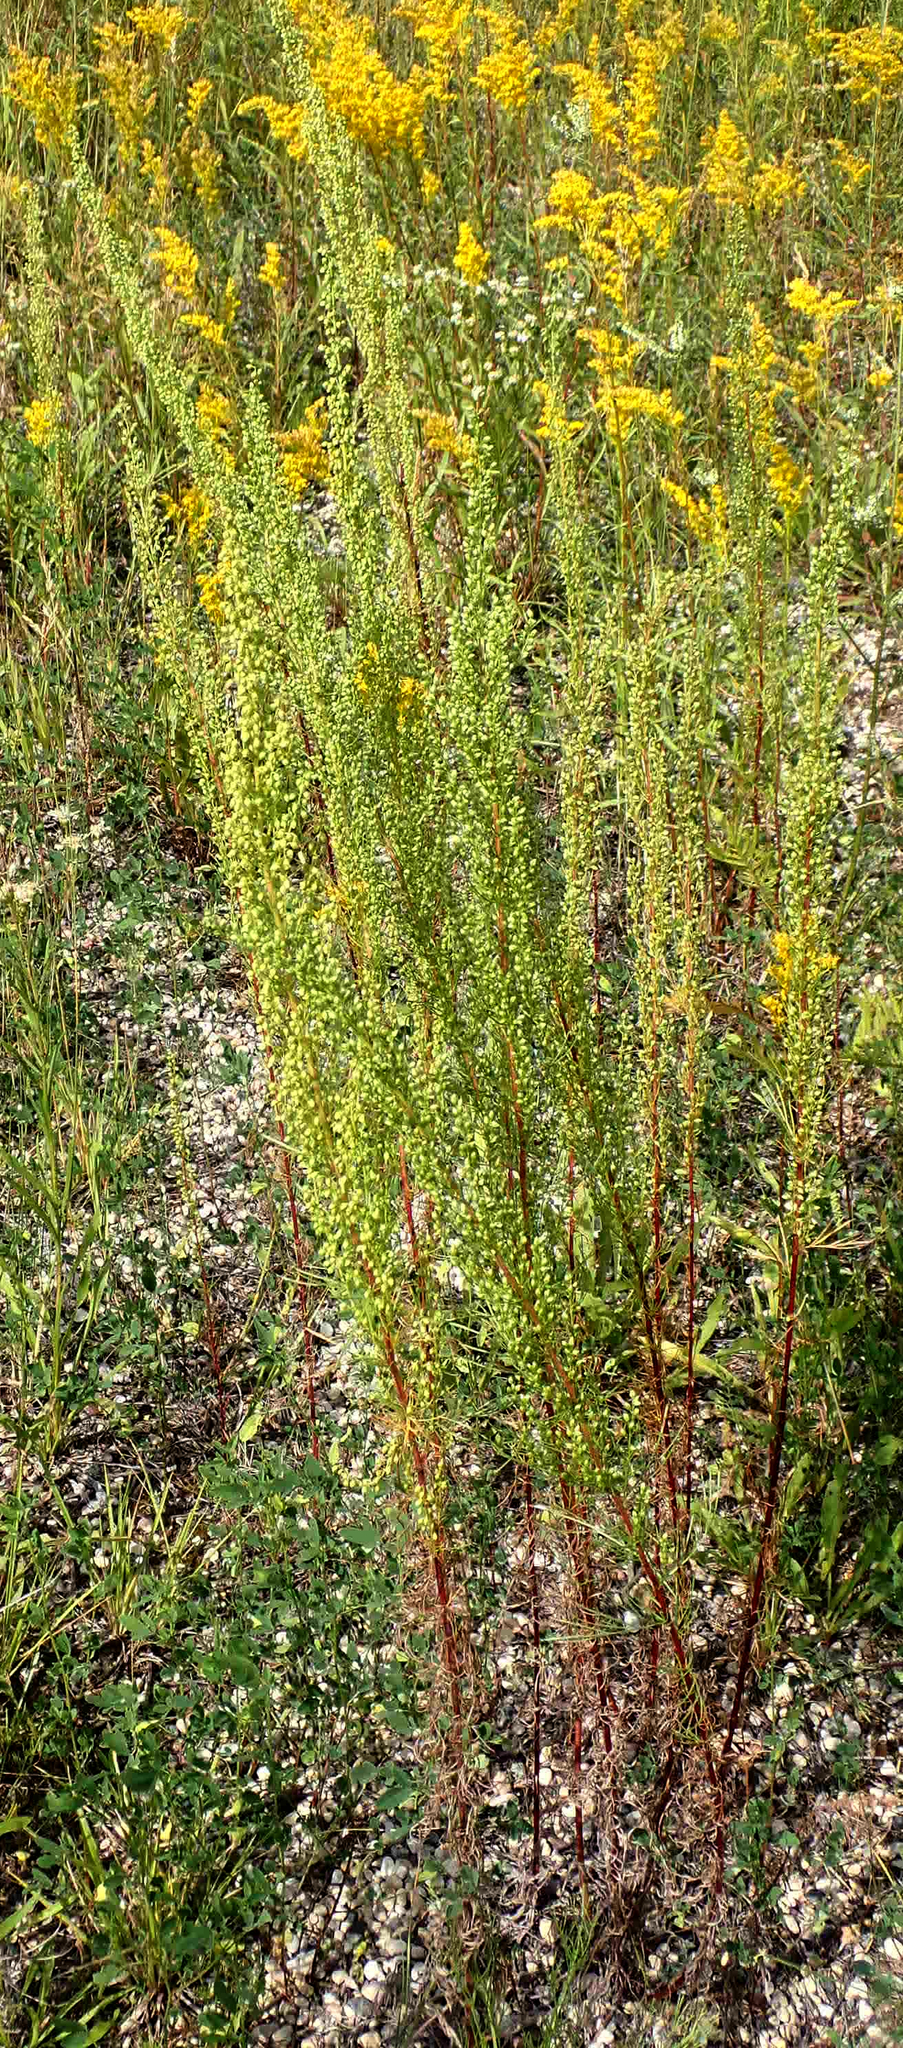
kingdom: Plantae
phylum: Tracheophyta
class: Magnoliopsida
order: Asterales
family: Asteraceae
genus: Artemisia
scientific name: Artemisia campestris
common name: Field wormwood
